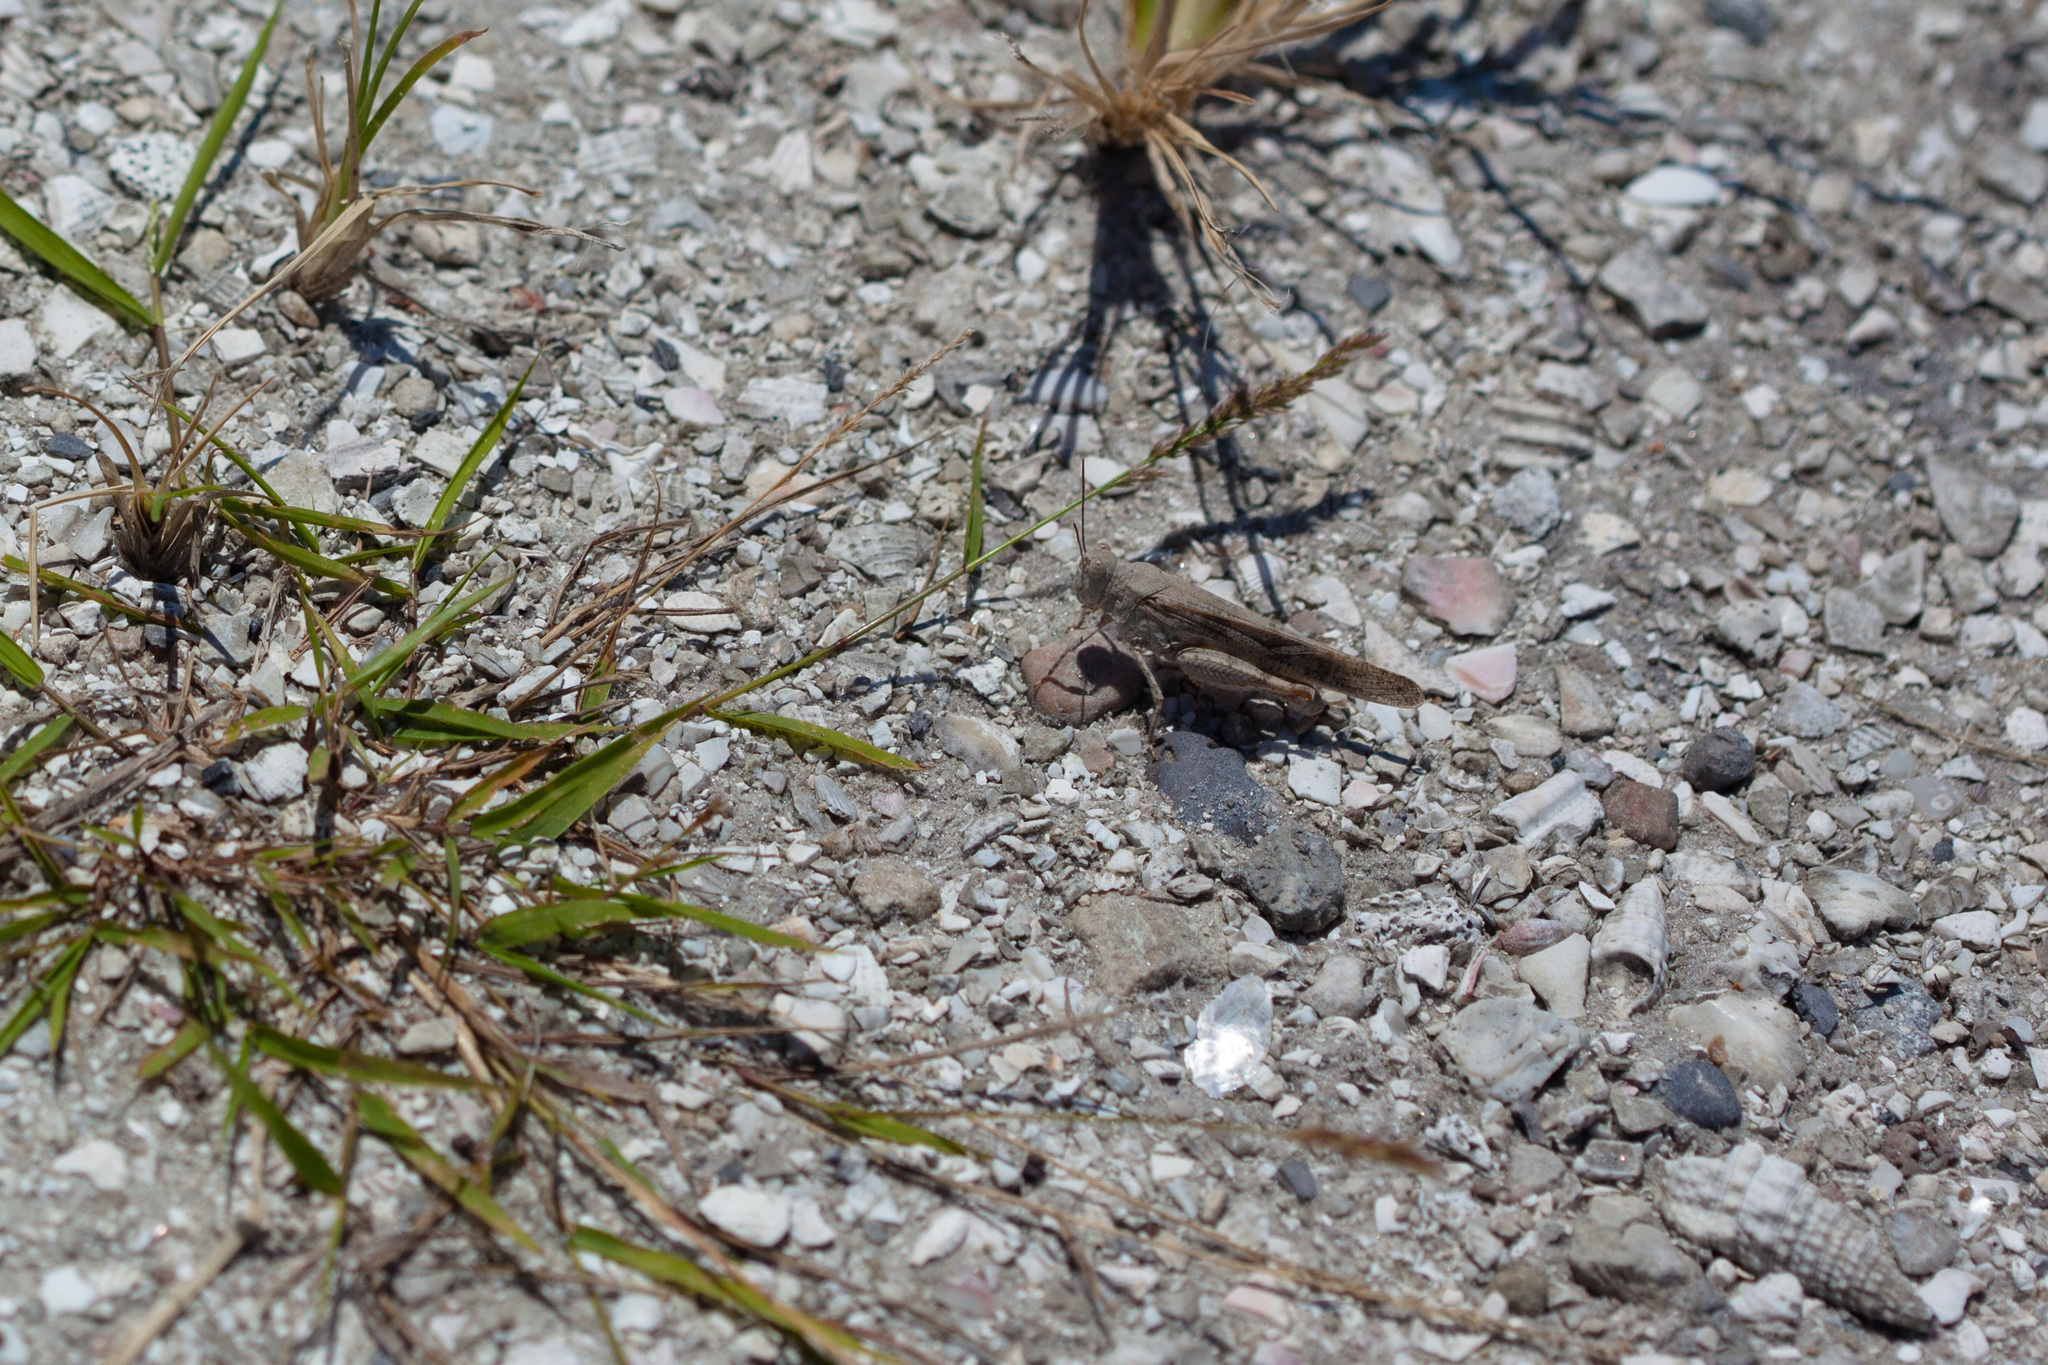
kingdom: Animalia
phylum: Arthropoda
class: Insecta
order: Orthoptera
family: Acrididae
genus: Trimerotropis
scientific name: Trimerotropis maritima
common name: Seaside locust
